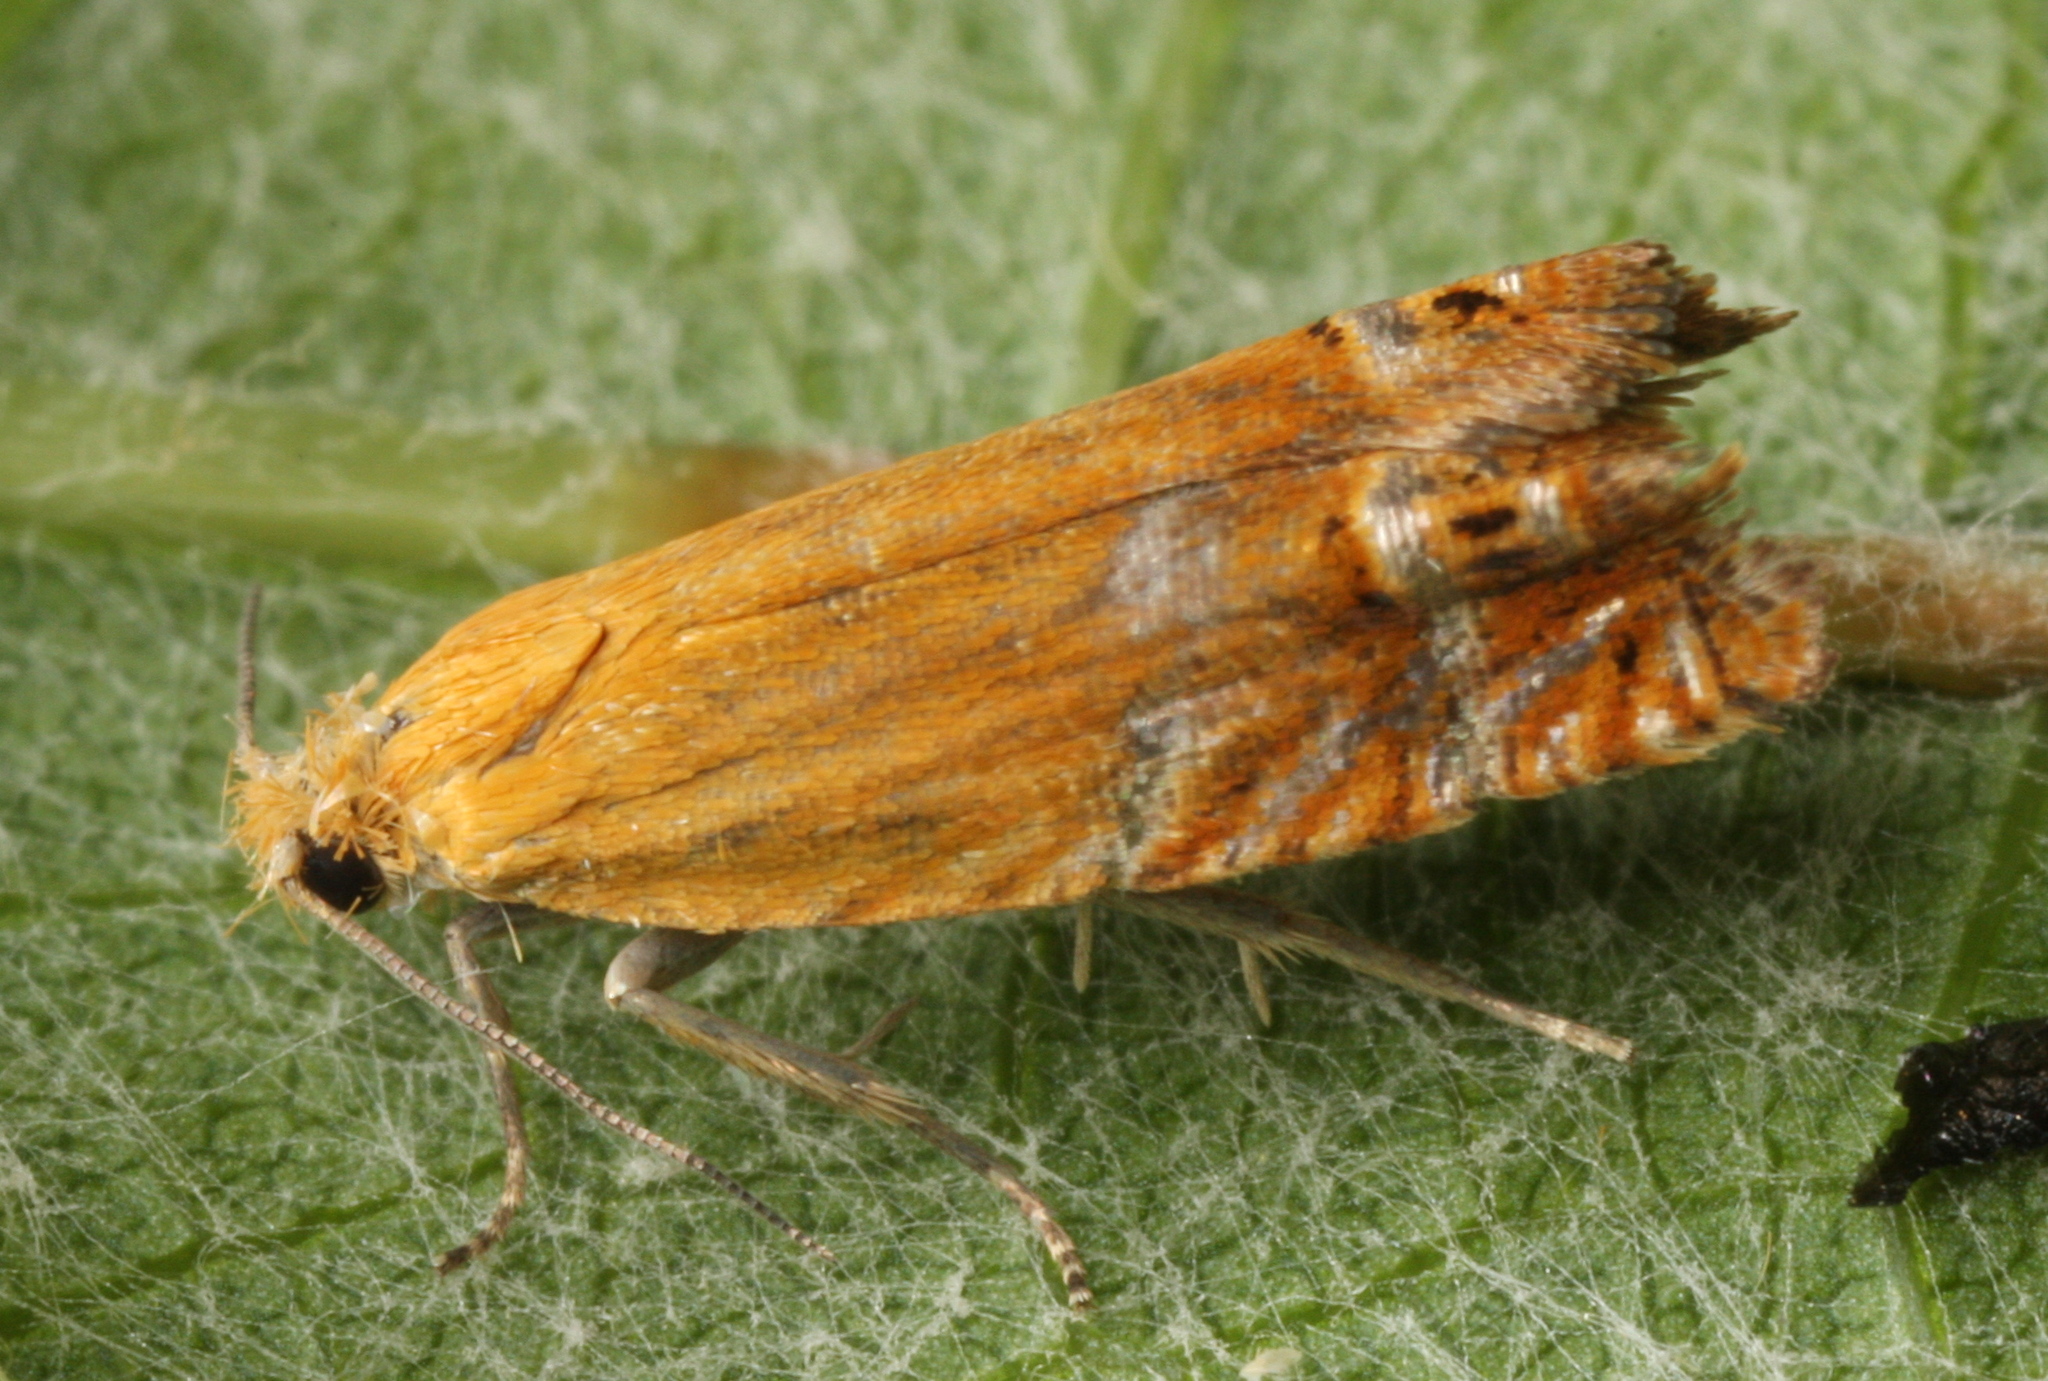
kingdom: Animalia
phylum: Arthropoda
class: Insecta
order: Lepidoptera
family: Tortricidae
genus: Lathronympha
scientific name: Lathronympha strigana
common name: Red piercer
